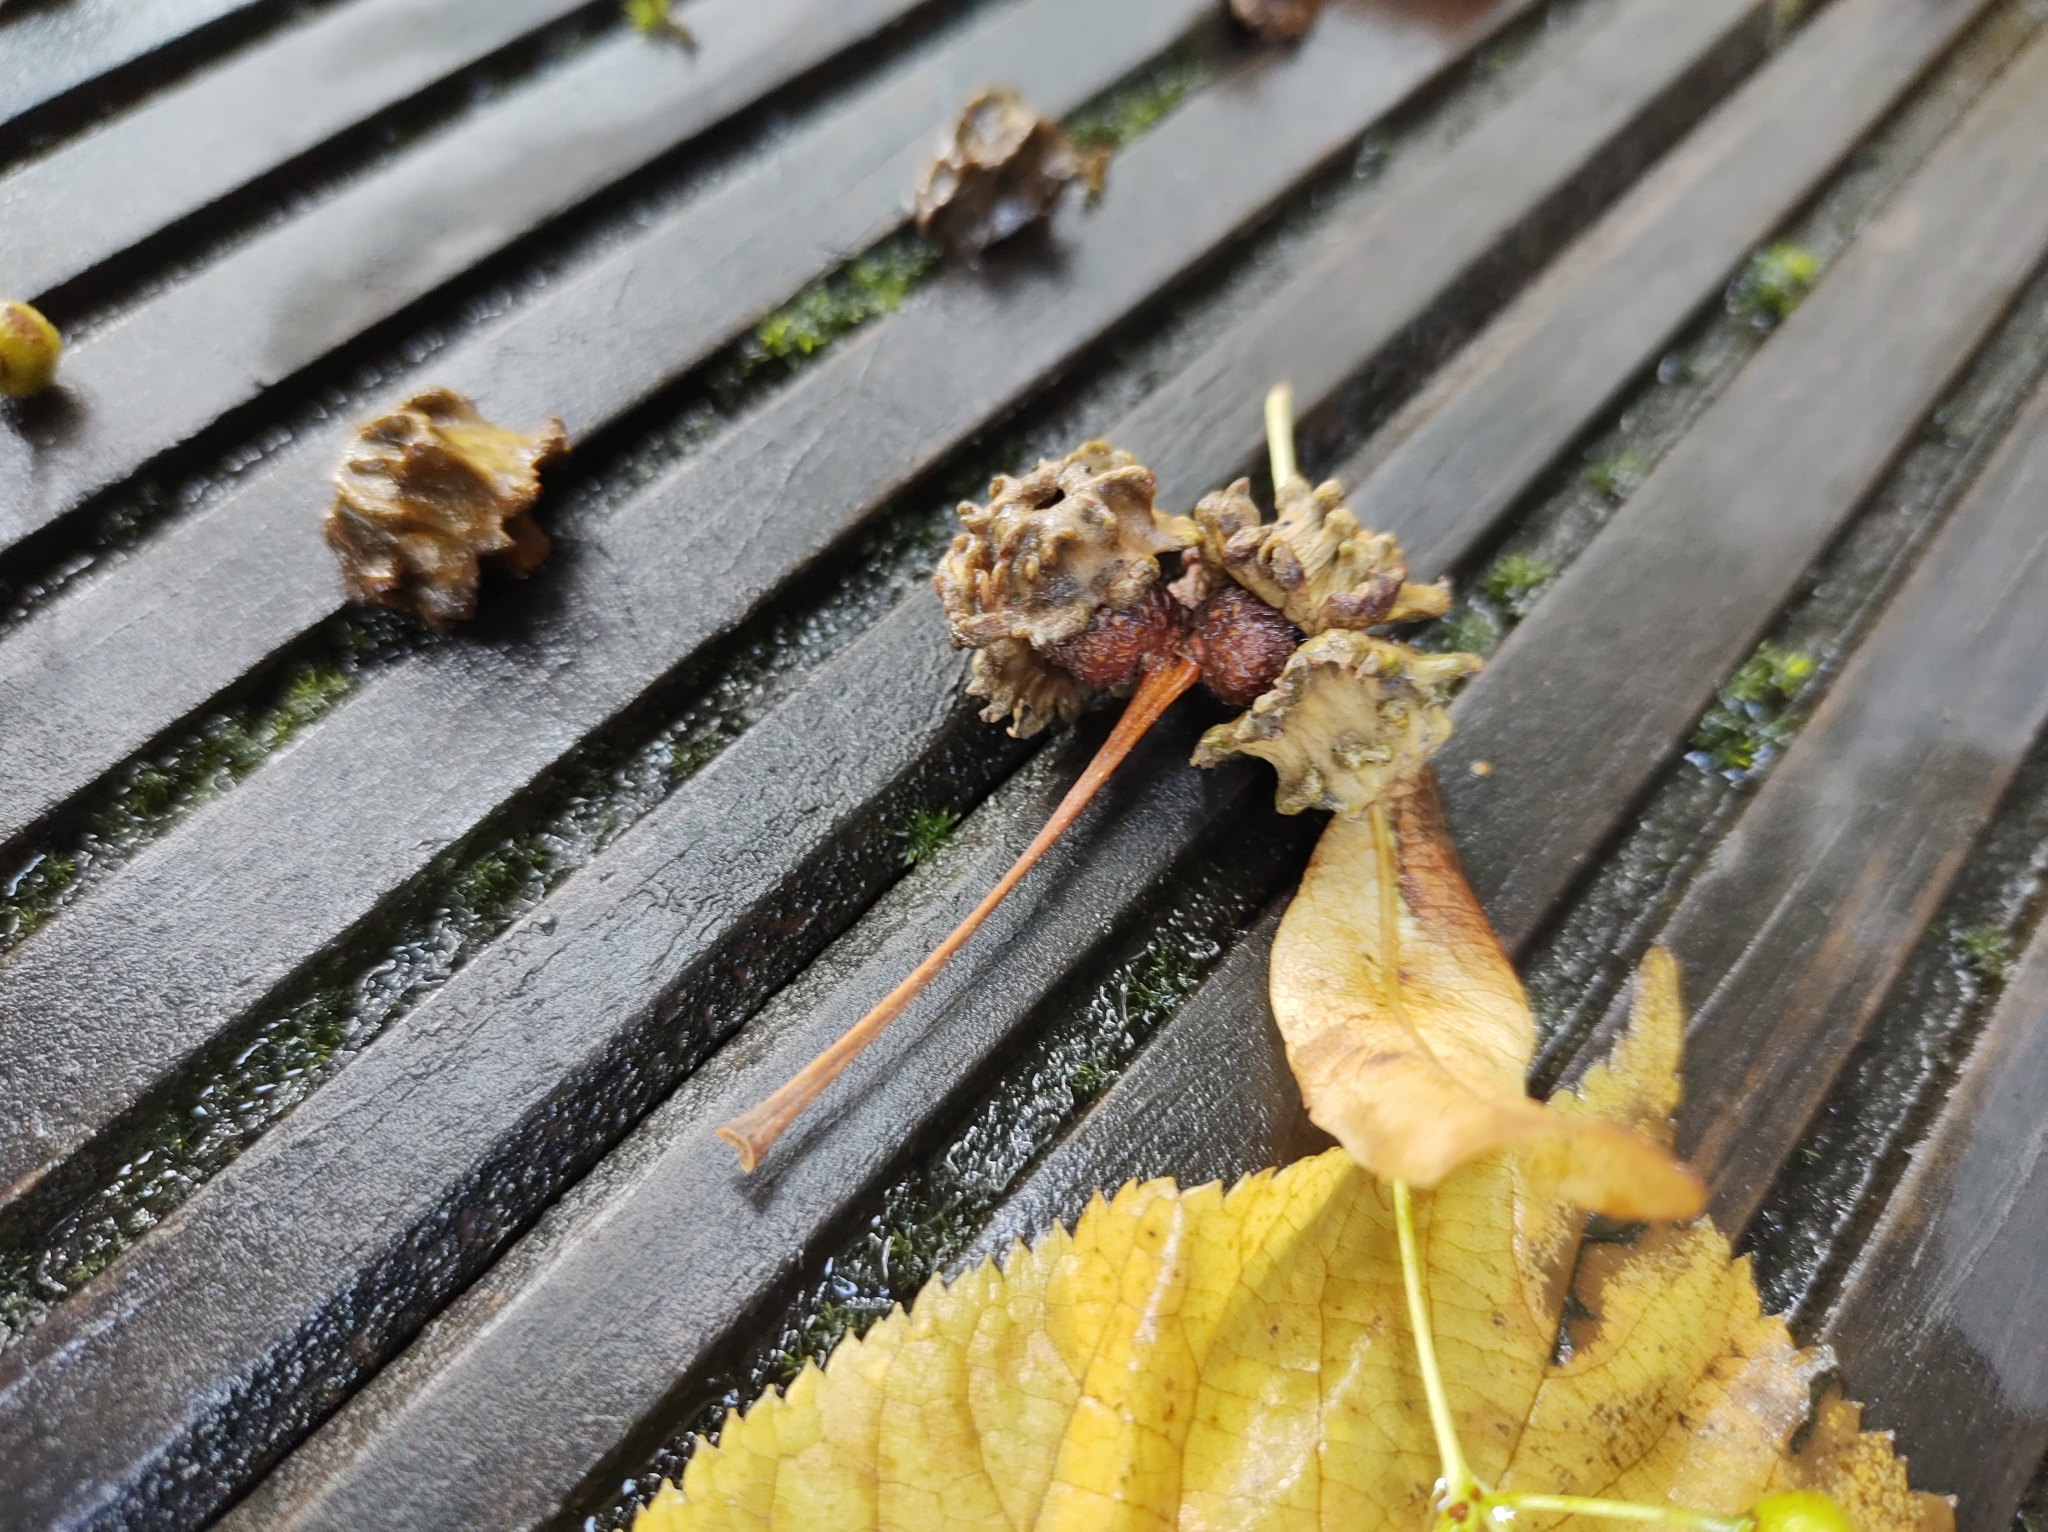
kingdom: Animalia
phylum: Arthropoda
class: Insecta
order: Hymenoptera
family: Cynipidae
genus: Andricus
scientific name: Andricus quercuscalicis
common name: Knopper gall
